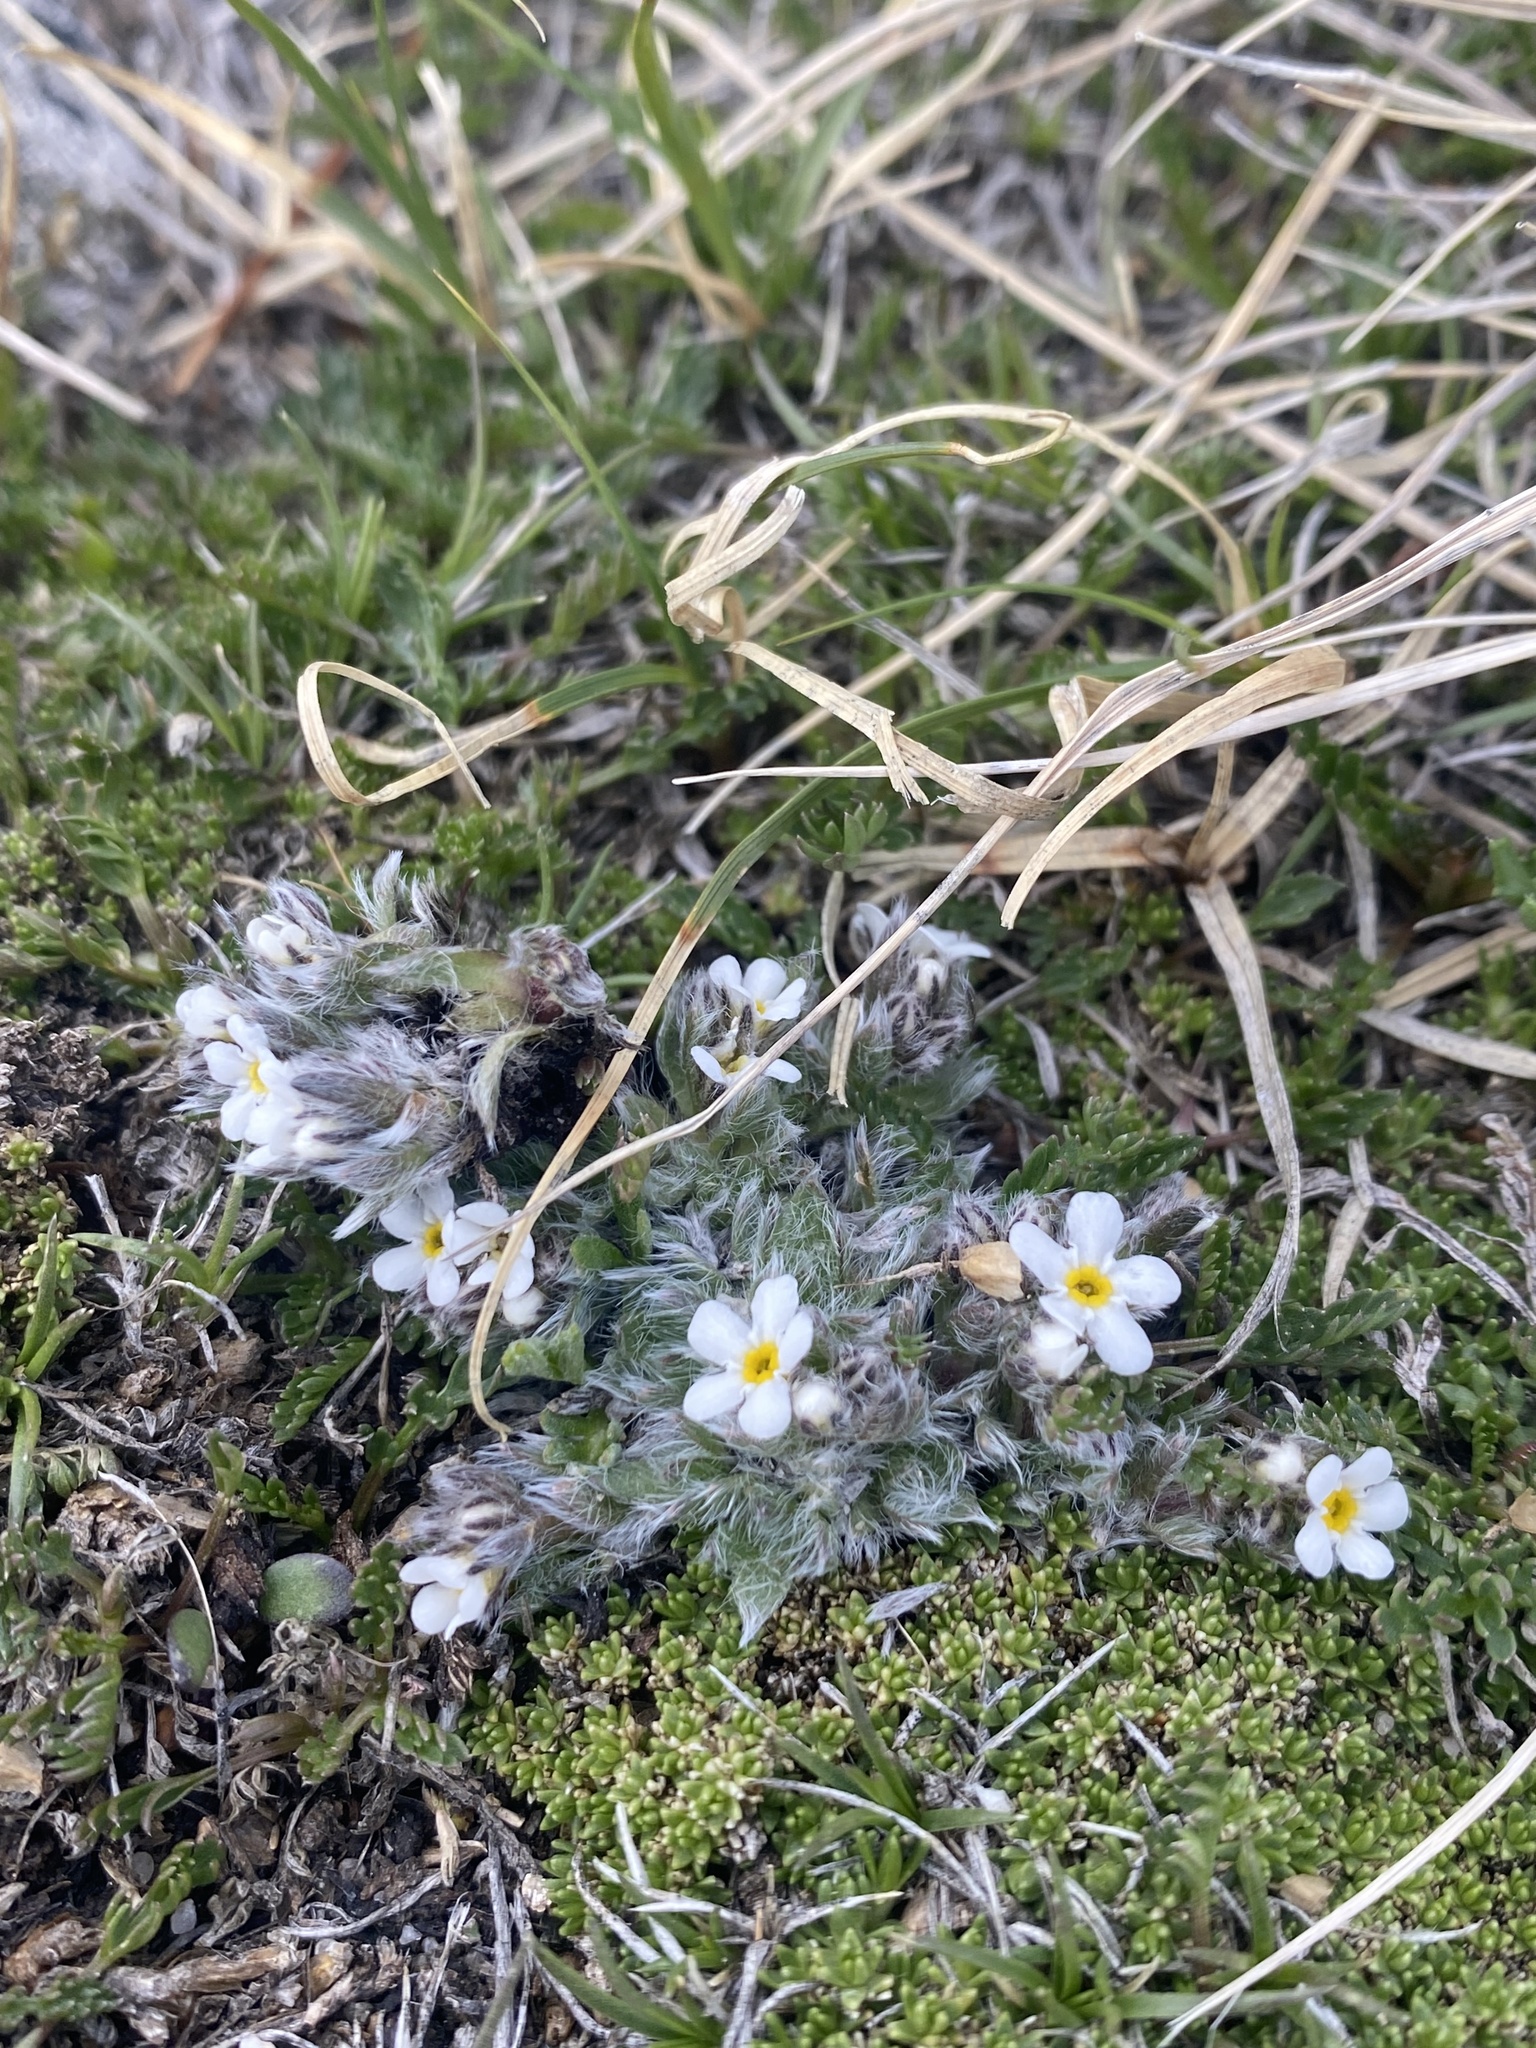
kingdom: Plantae
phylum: Tracheophyta
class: Magnoliopsida
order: Boraginales
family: Boraginaceae
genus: Eritrichium
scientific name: Eritrichium argenteum
